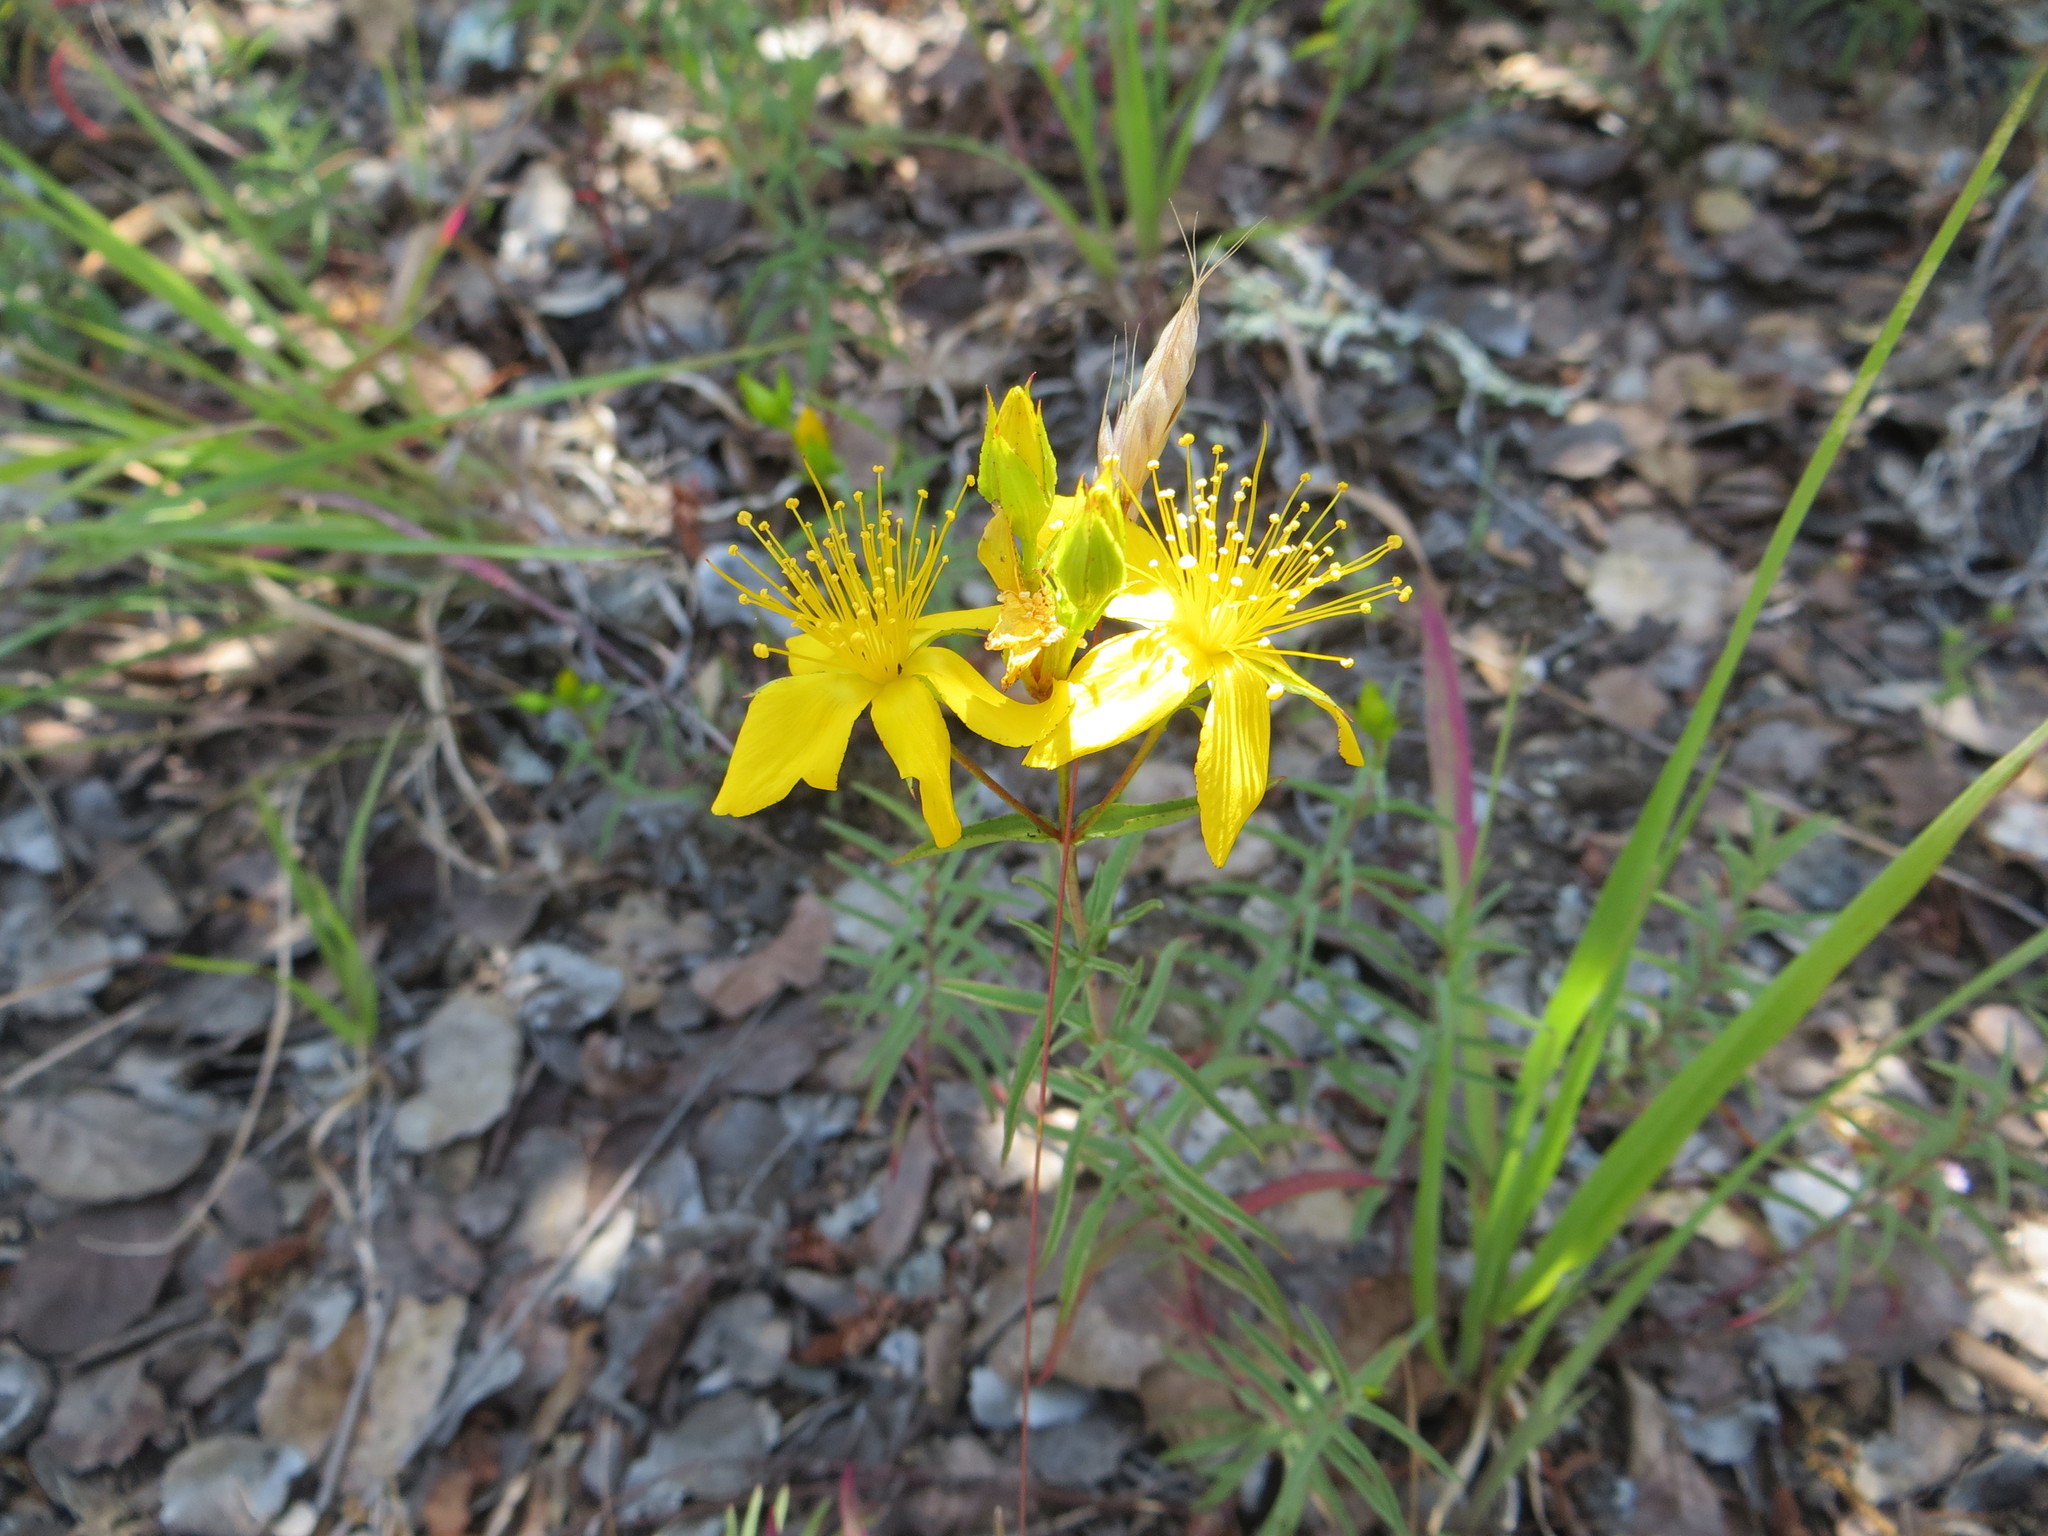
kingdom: Plantae
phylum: Tracheophyta
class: Magnoliopsida
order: Malpighiales
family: Hypericaceae
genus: Hypericum
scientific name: Hypericum concinnum
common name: Gold-wire
